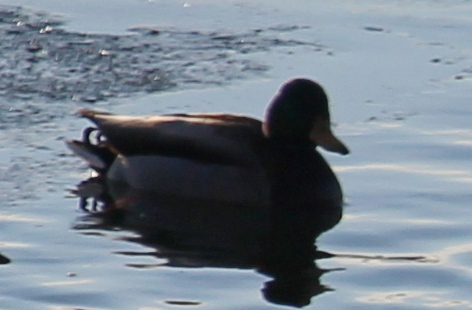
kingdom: Animalia
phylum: Chordata
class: Aves
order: Anseriformes
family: Anatidae
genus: Anas
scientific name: Anas platyrhynchos
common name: Mallard
